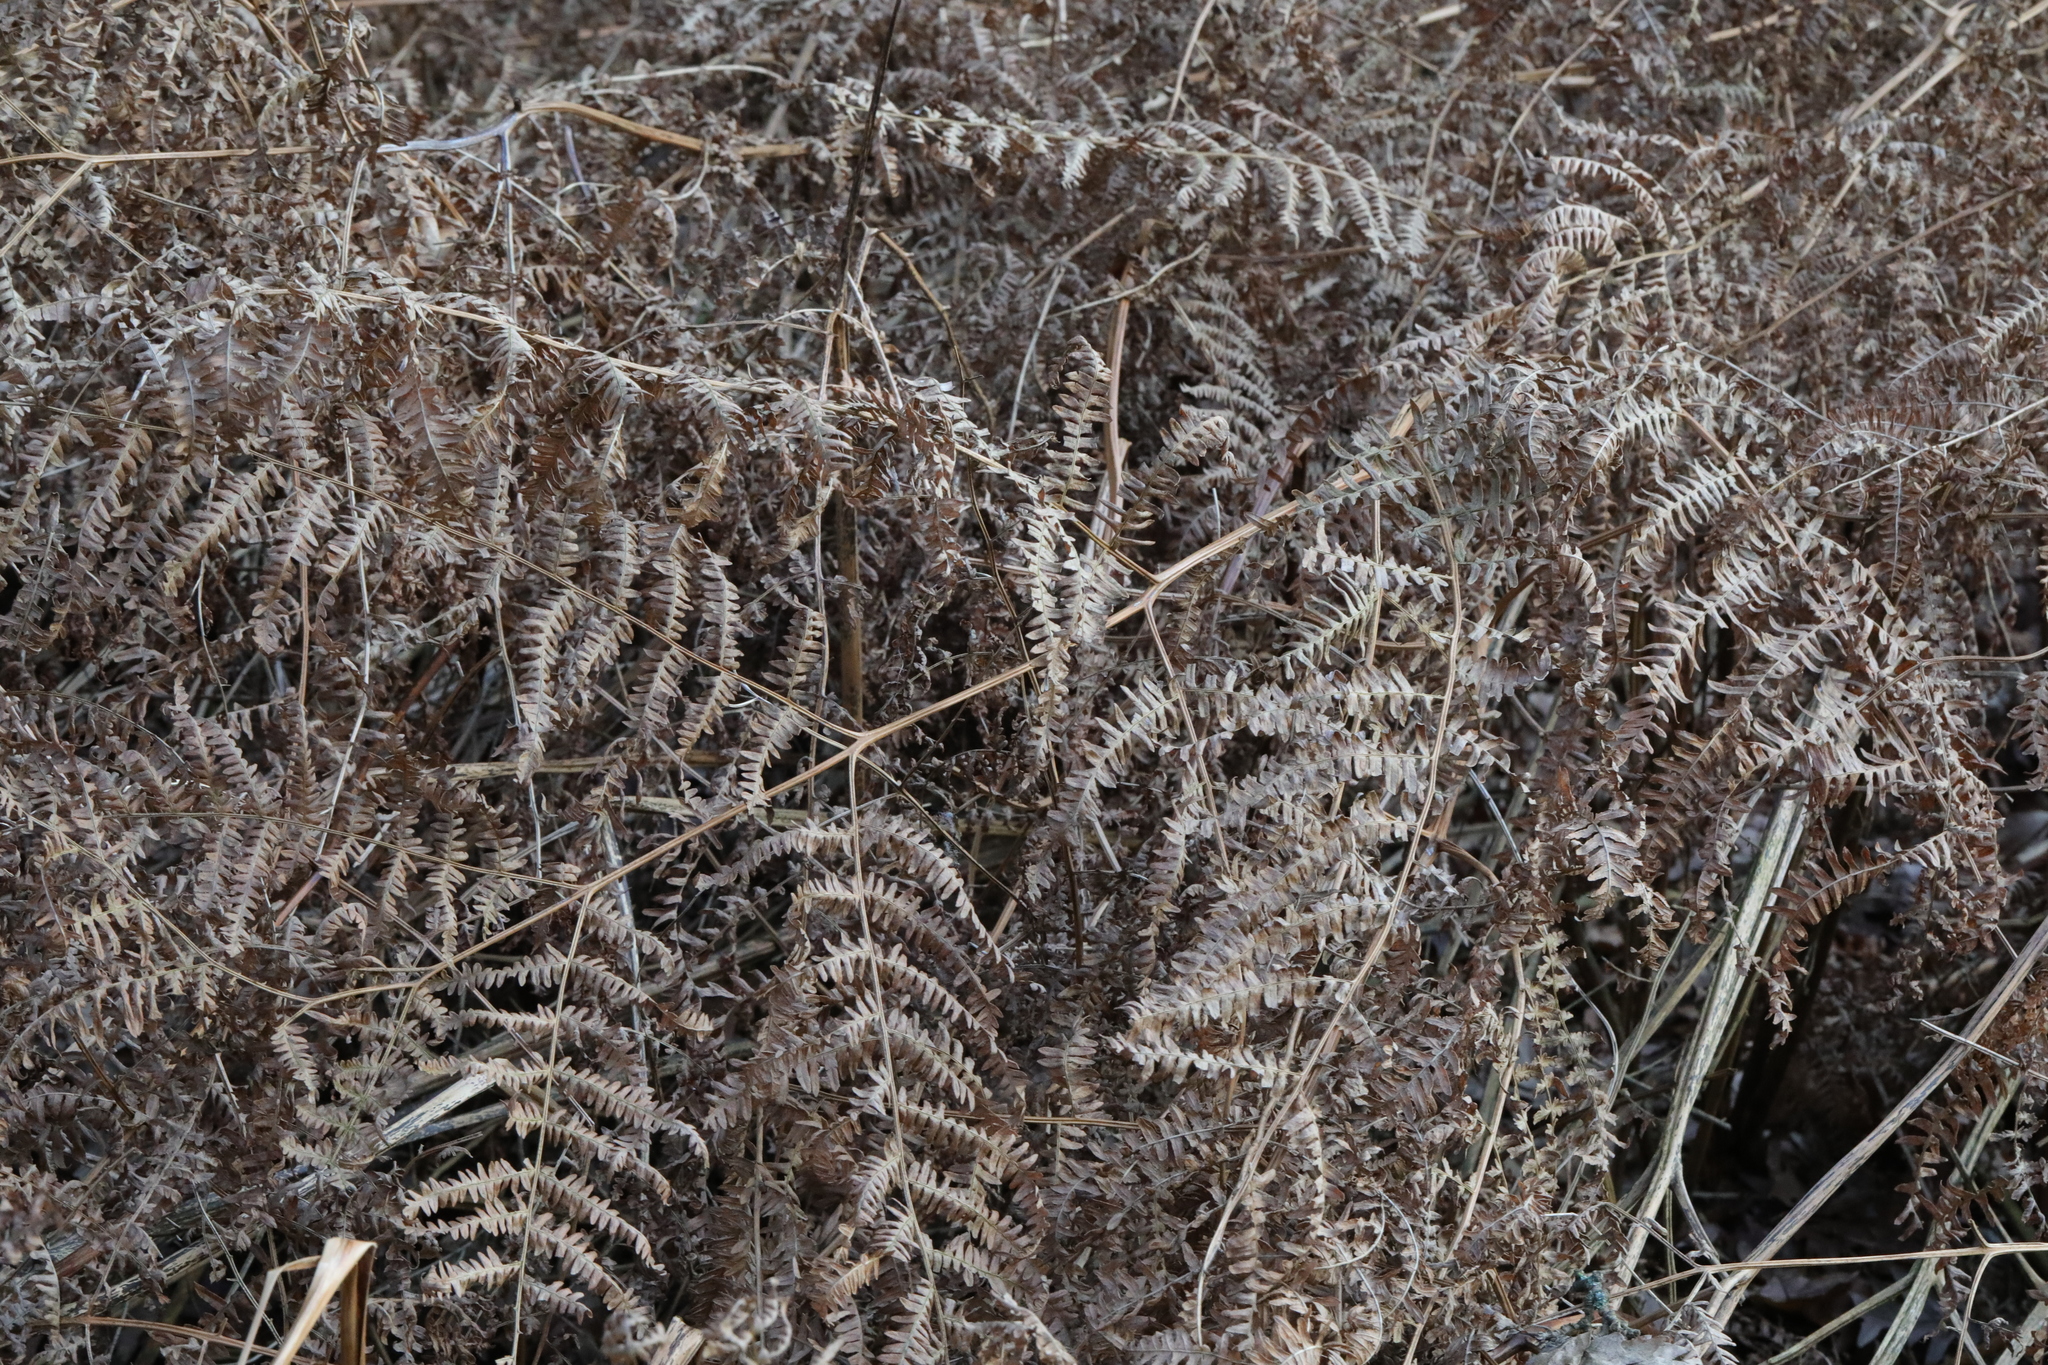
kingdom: Plantae
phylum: Tracheophyta
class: Polypodiopsida
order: Polypodiales
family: Dennstaedtiaceae
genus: Pteridium
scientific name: Pteridium aquilinum
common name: Bracken
